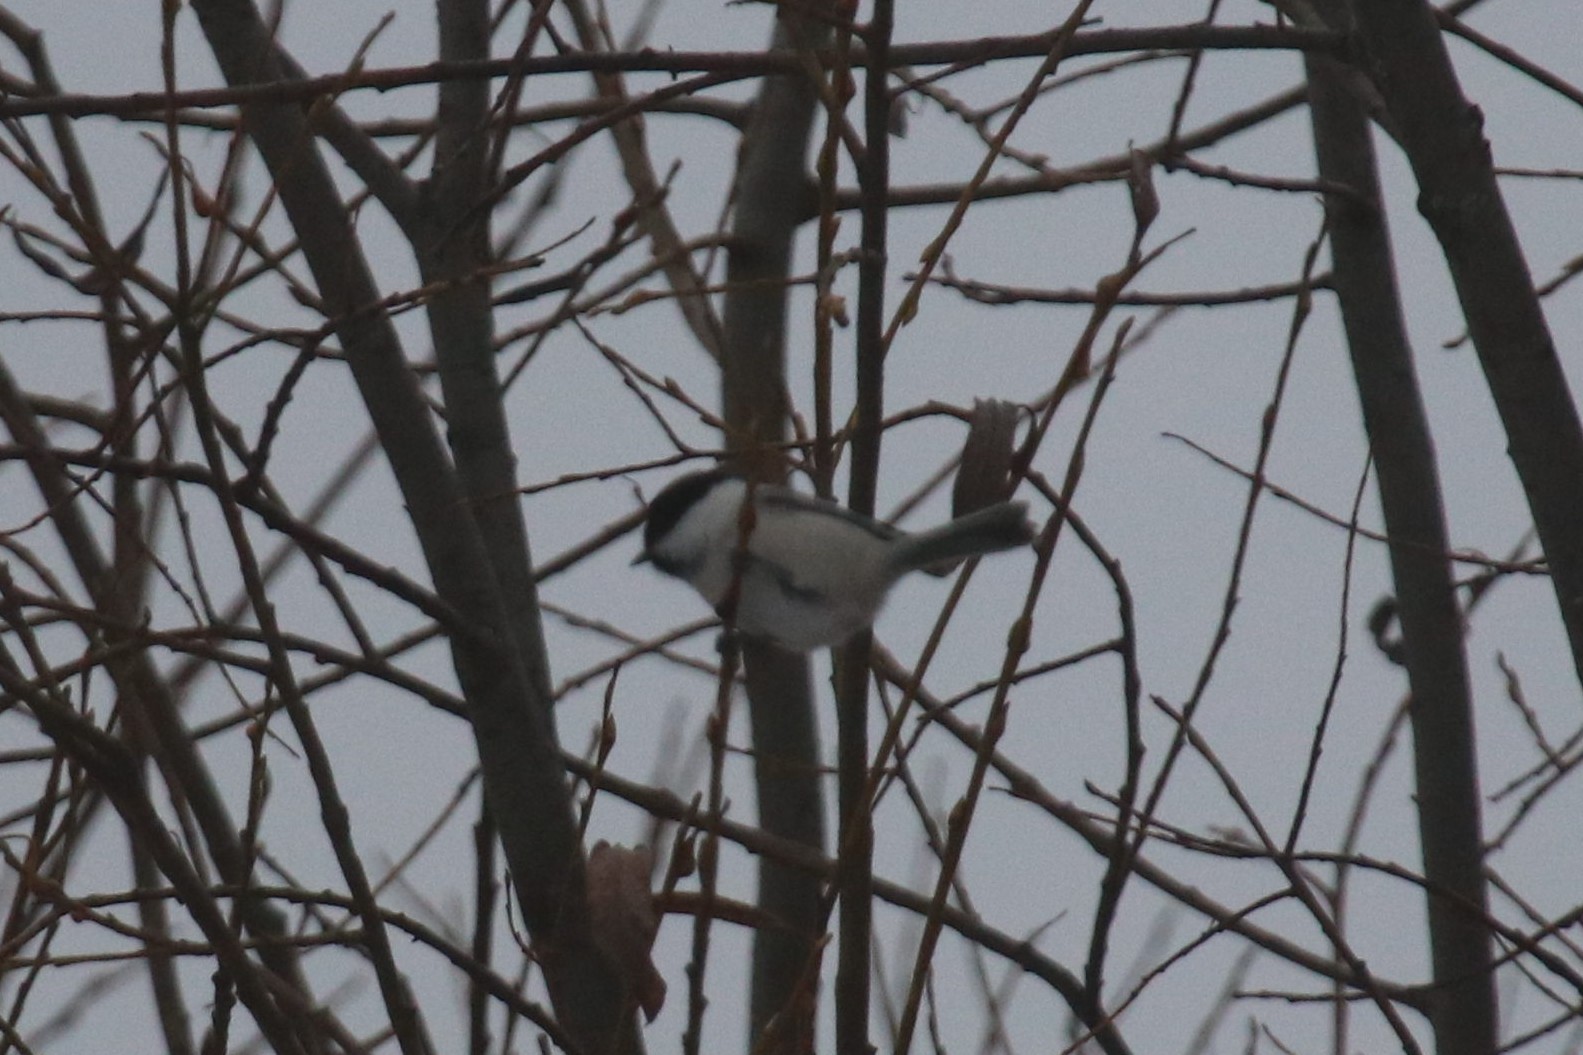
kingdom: Animalia
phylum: Chordata
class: Aves
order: Passeriformes
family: Paridae
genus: Poecile
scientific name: Poecile montanus
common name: Willow tit
